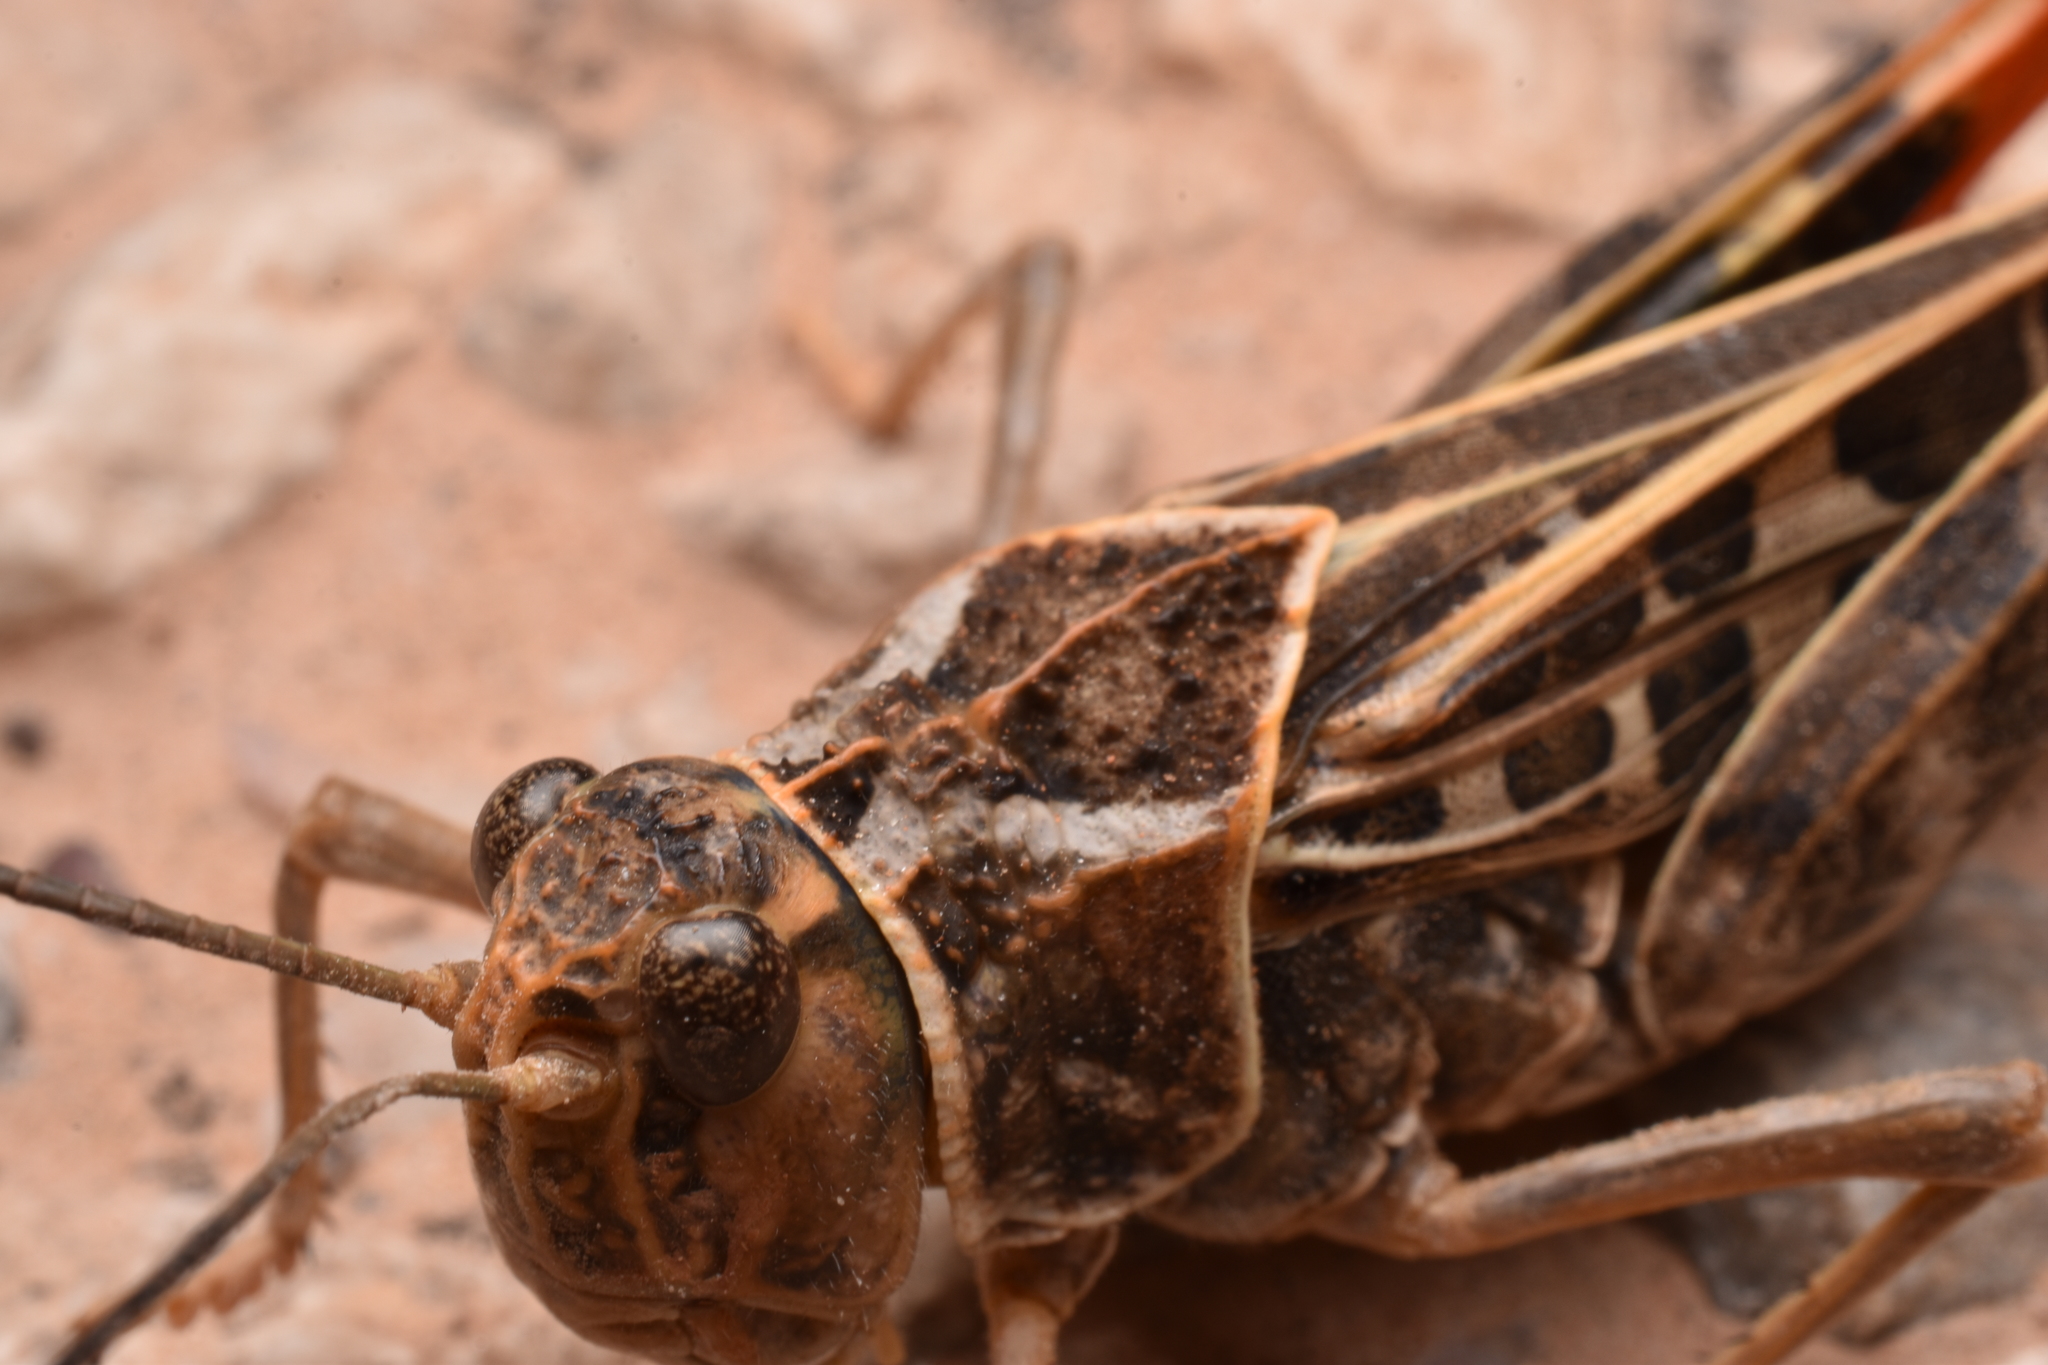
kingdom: Animalia
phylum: Arthropoda
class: Insecta
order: Orthoptera
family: Acrididae
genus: Xanthippus
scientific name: Xanthippus corallipes
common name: Redshanked grasshopper
